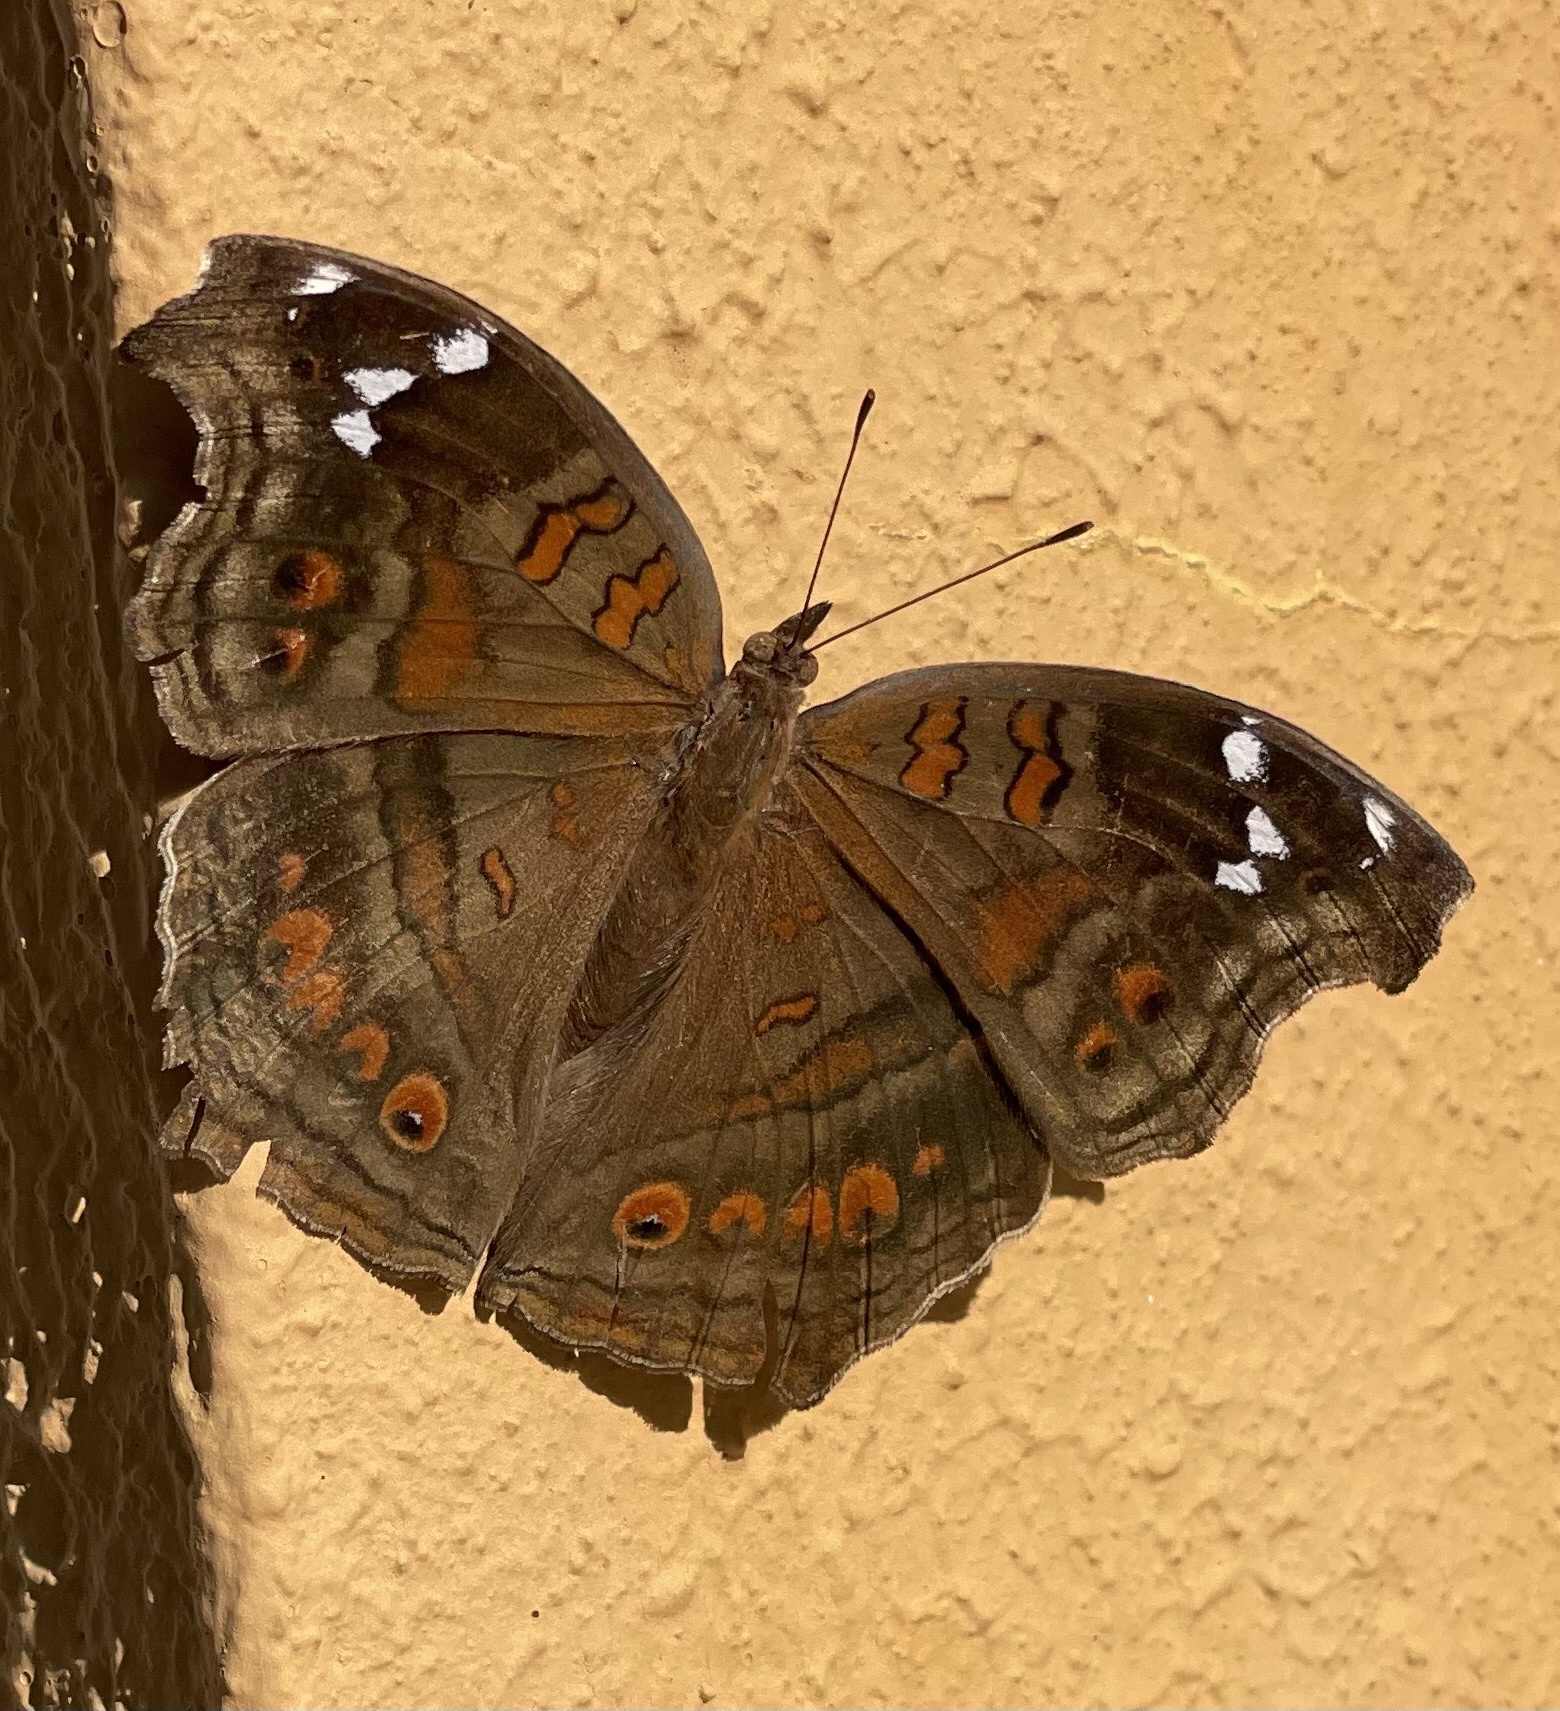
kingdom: Animalia
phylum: Arthropoda
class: Insecta
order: Lepidoptera
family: Nymphalidae
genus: Junonia
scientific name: Junonia natalica
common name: Brown pansy
